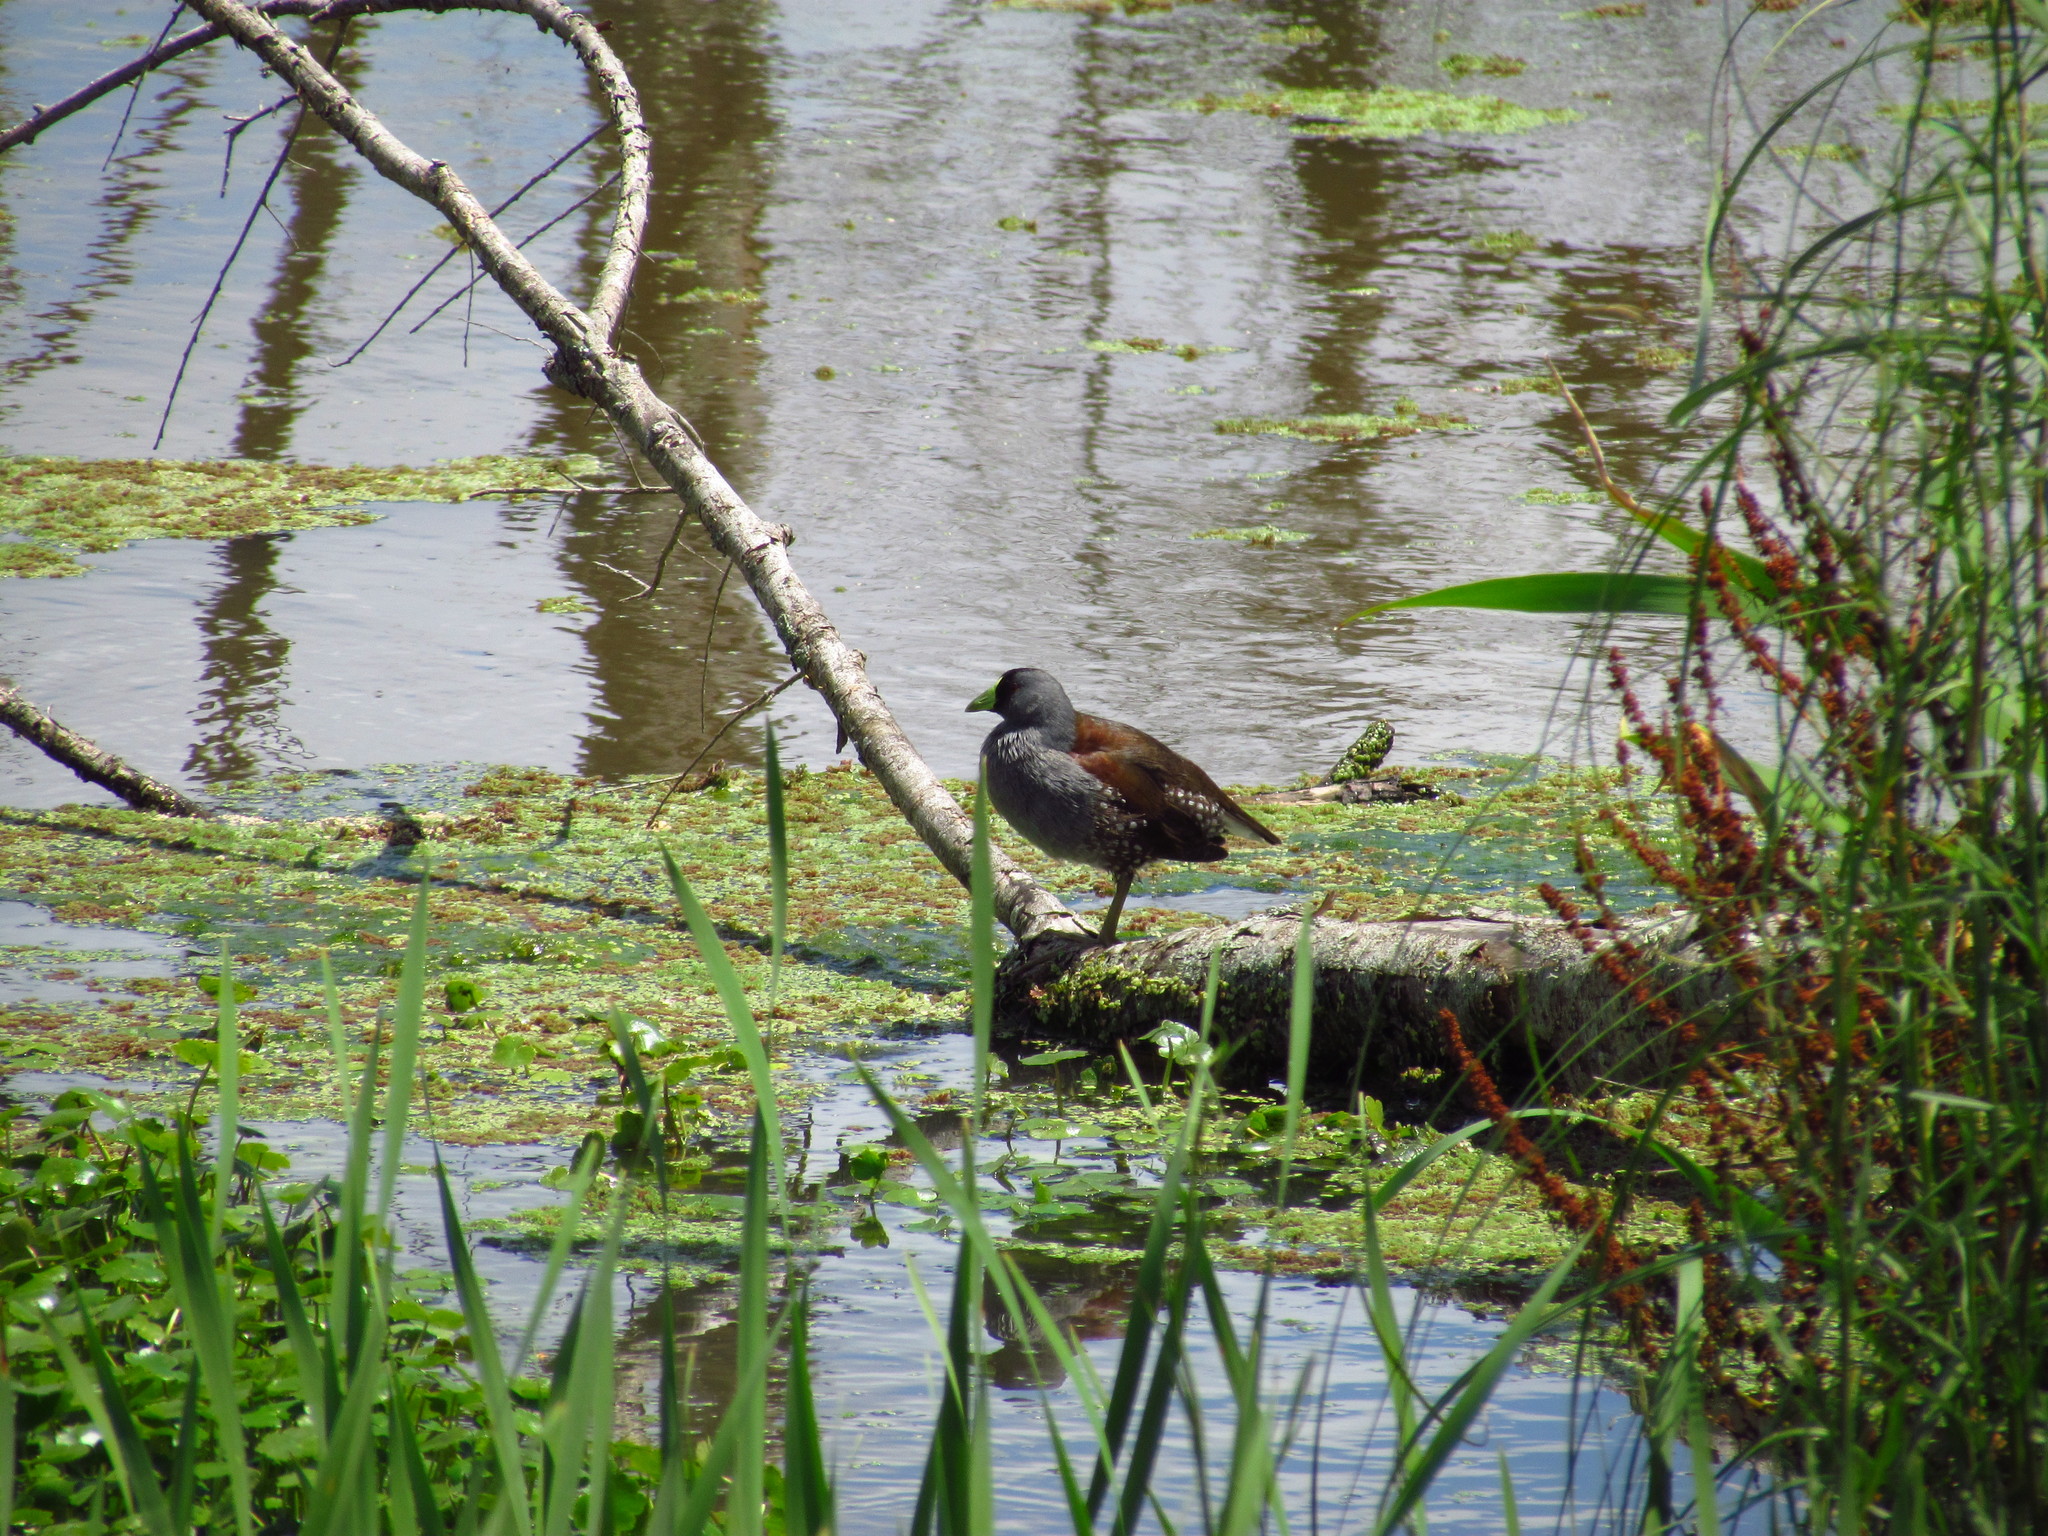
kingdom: Animalia
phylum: Chordata
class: Aves
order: Gruiformes
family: Rallidae
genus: Gallinula
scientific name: Gallinula melanops
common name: Spot-flanked gallinule
